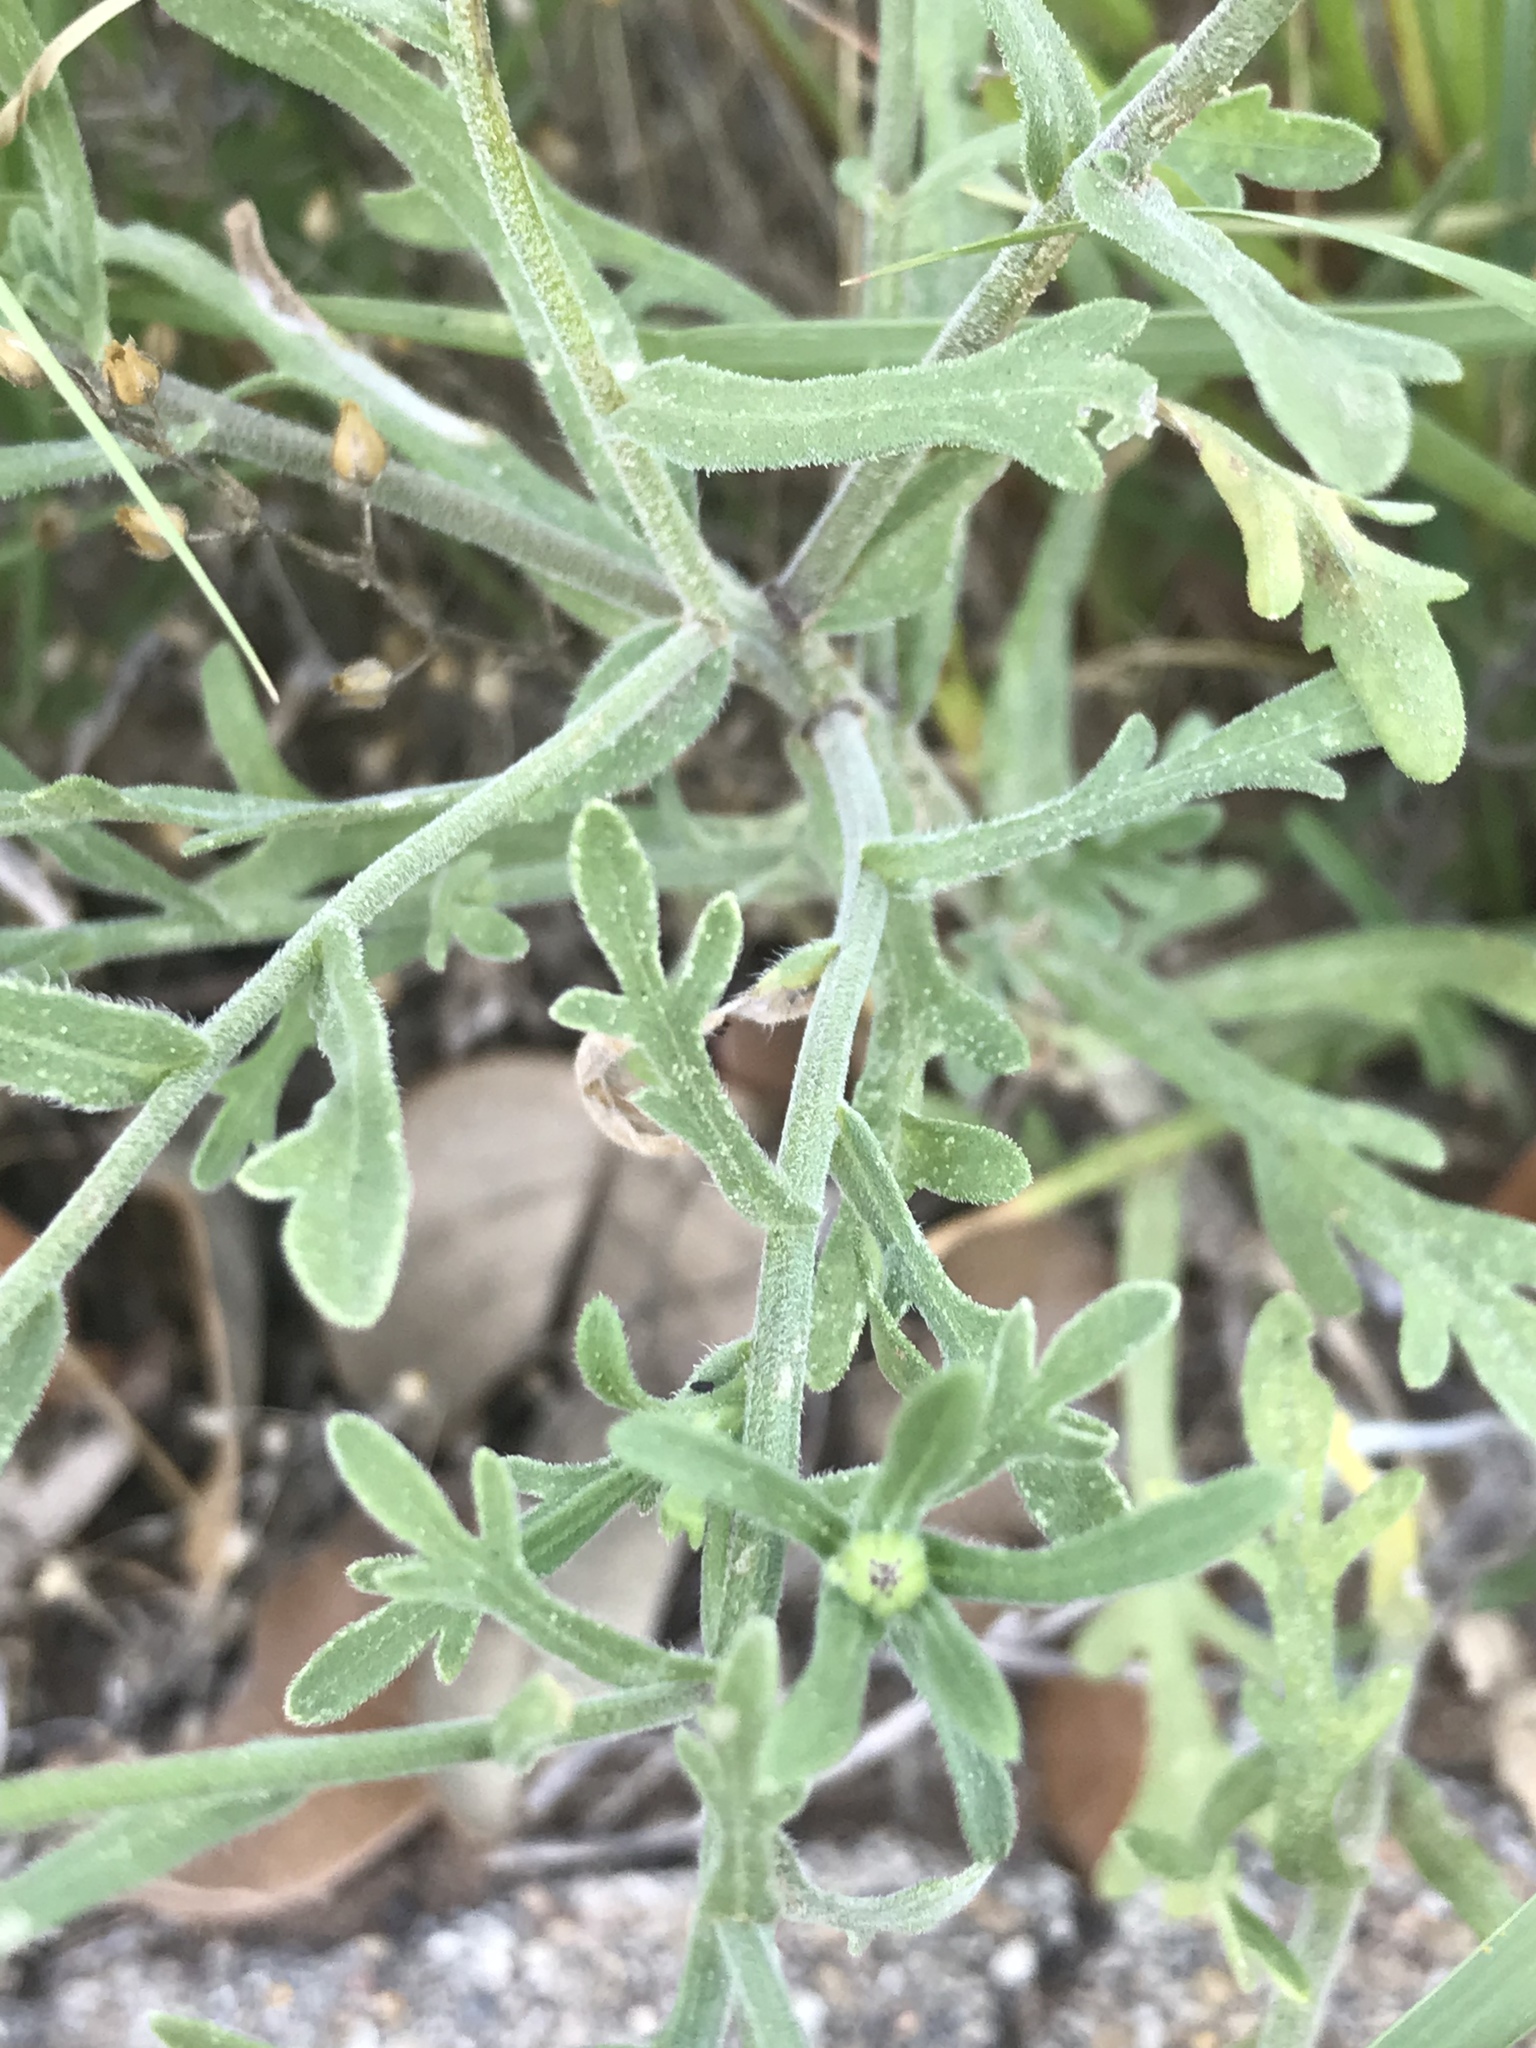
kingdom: Plantae
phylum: Tracheophyta
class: Magnoliopsida
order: Asterales
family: Asteraceae
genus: Aphanostephus
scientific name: Aphanostephus ramosissimus
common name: Plains lazy daisy
